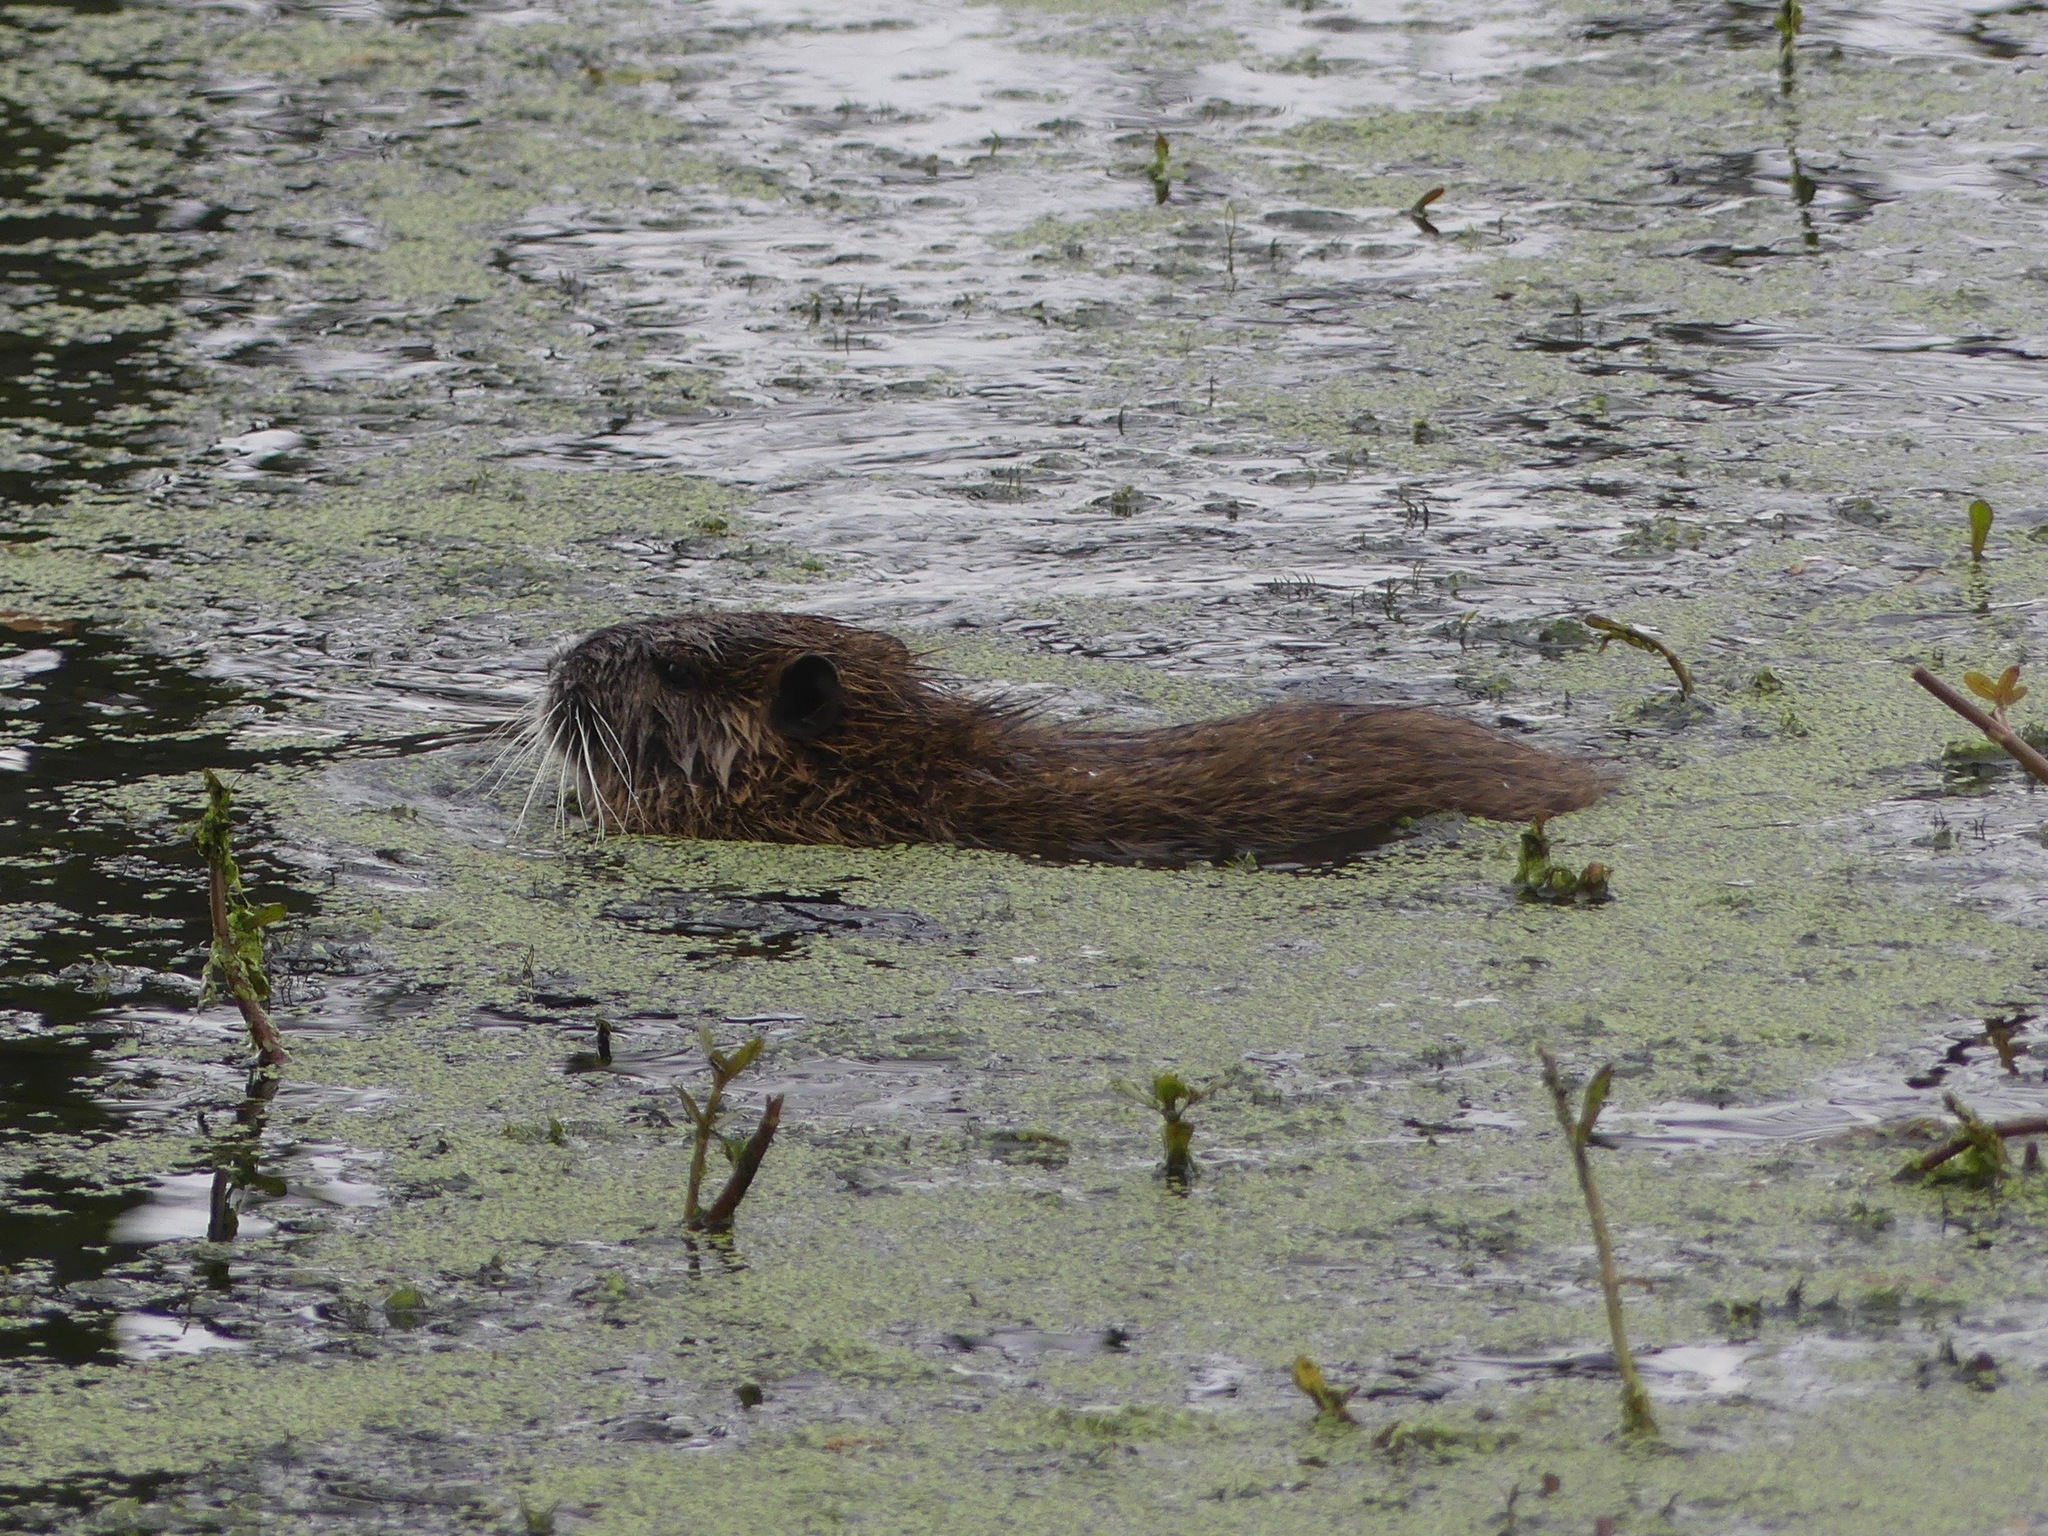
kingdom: Animalia
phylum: Chordata
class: Mammalia
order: Rodentia
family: Myocastoridae
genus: Myocastor
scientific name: Myocastor coypus
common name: Coypu
